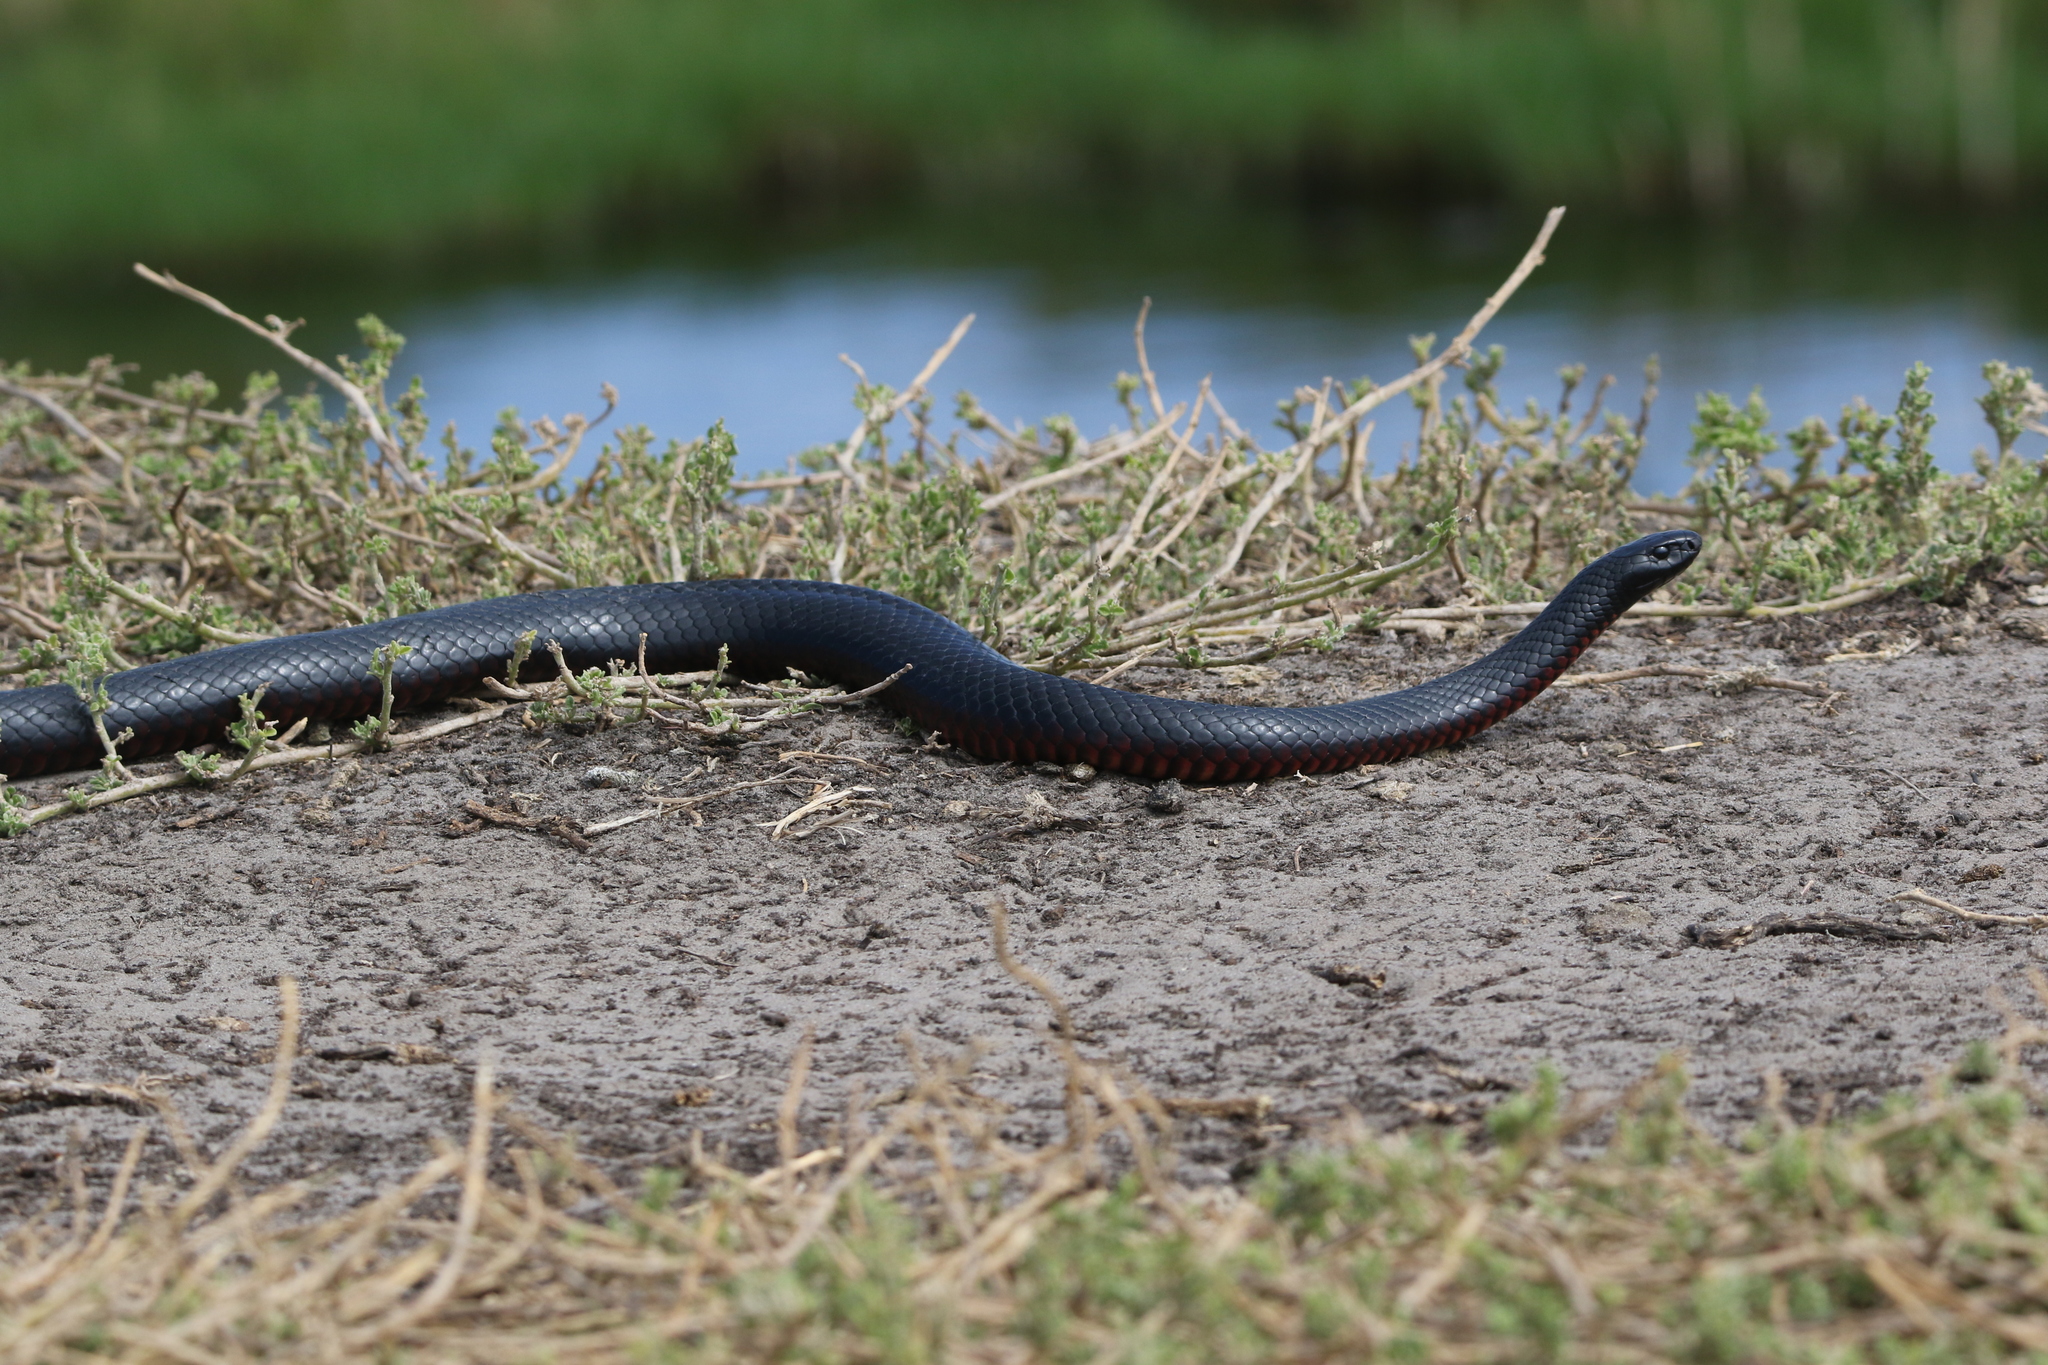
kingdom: Animalia
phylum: Chordata
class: Squamata
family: Elapidae
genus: Pseudechis
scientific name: Pseudechis porphyriacus
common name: Australian black snake
